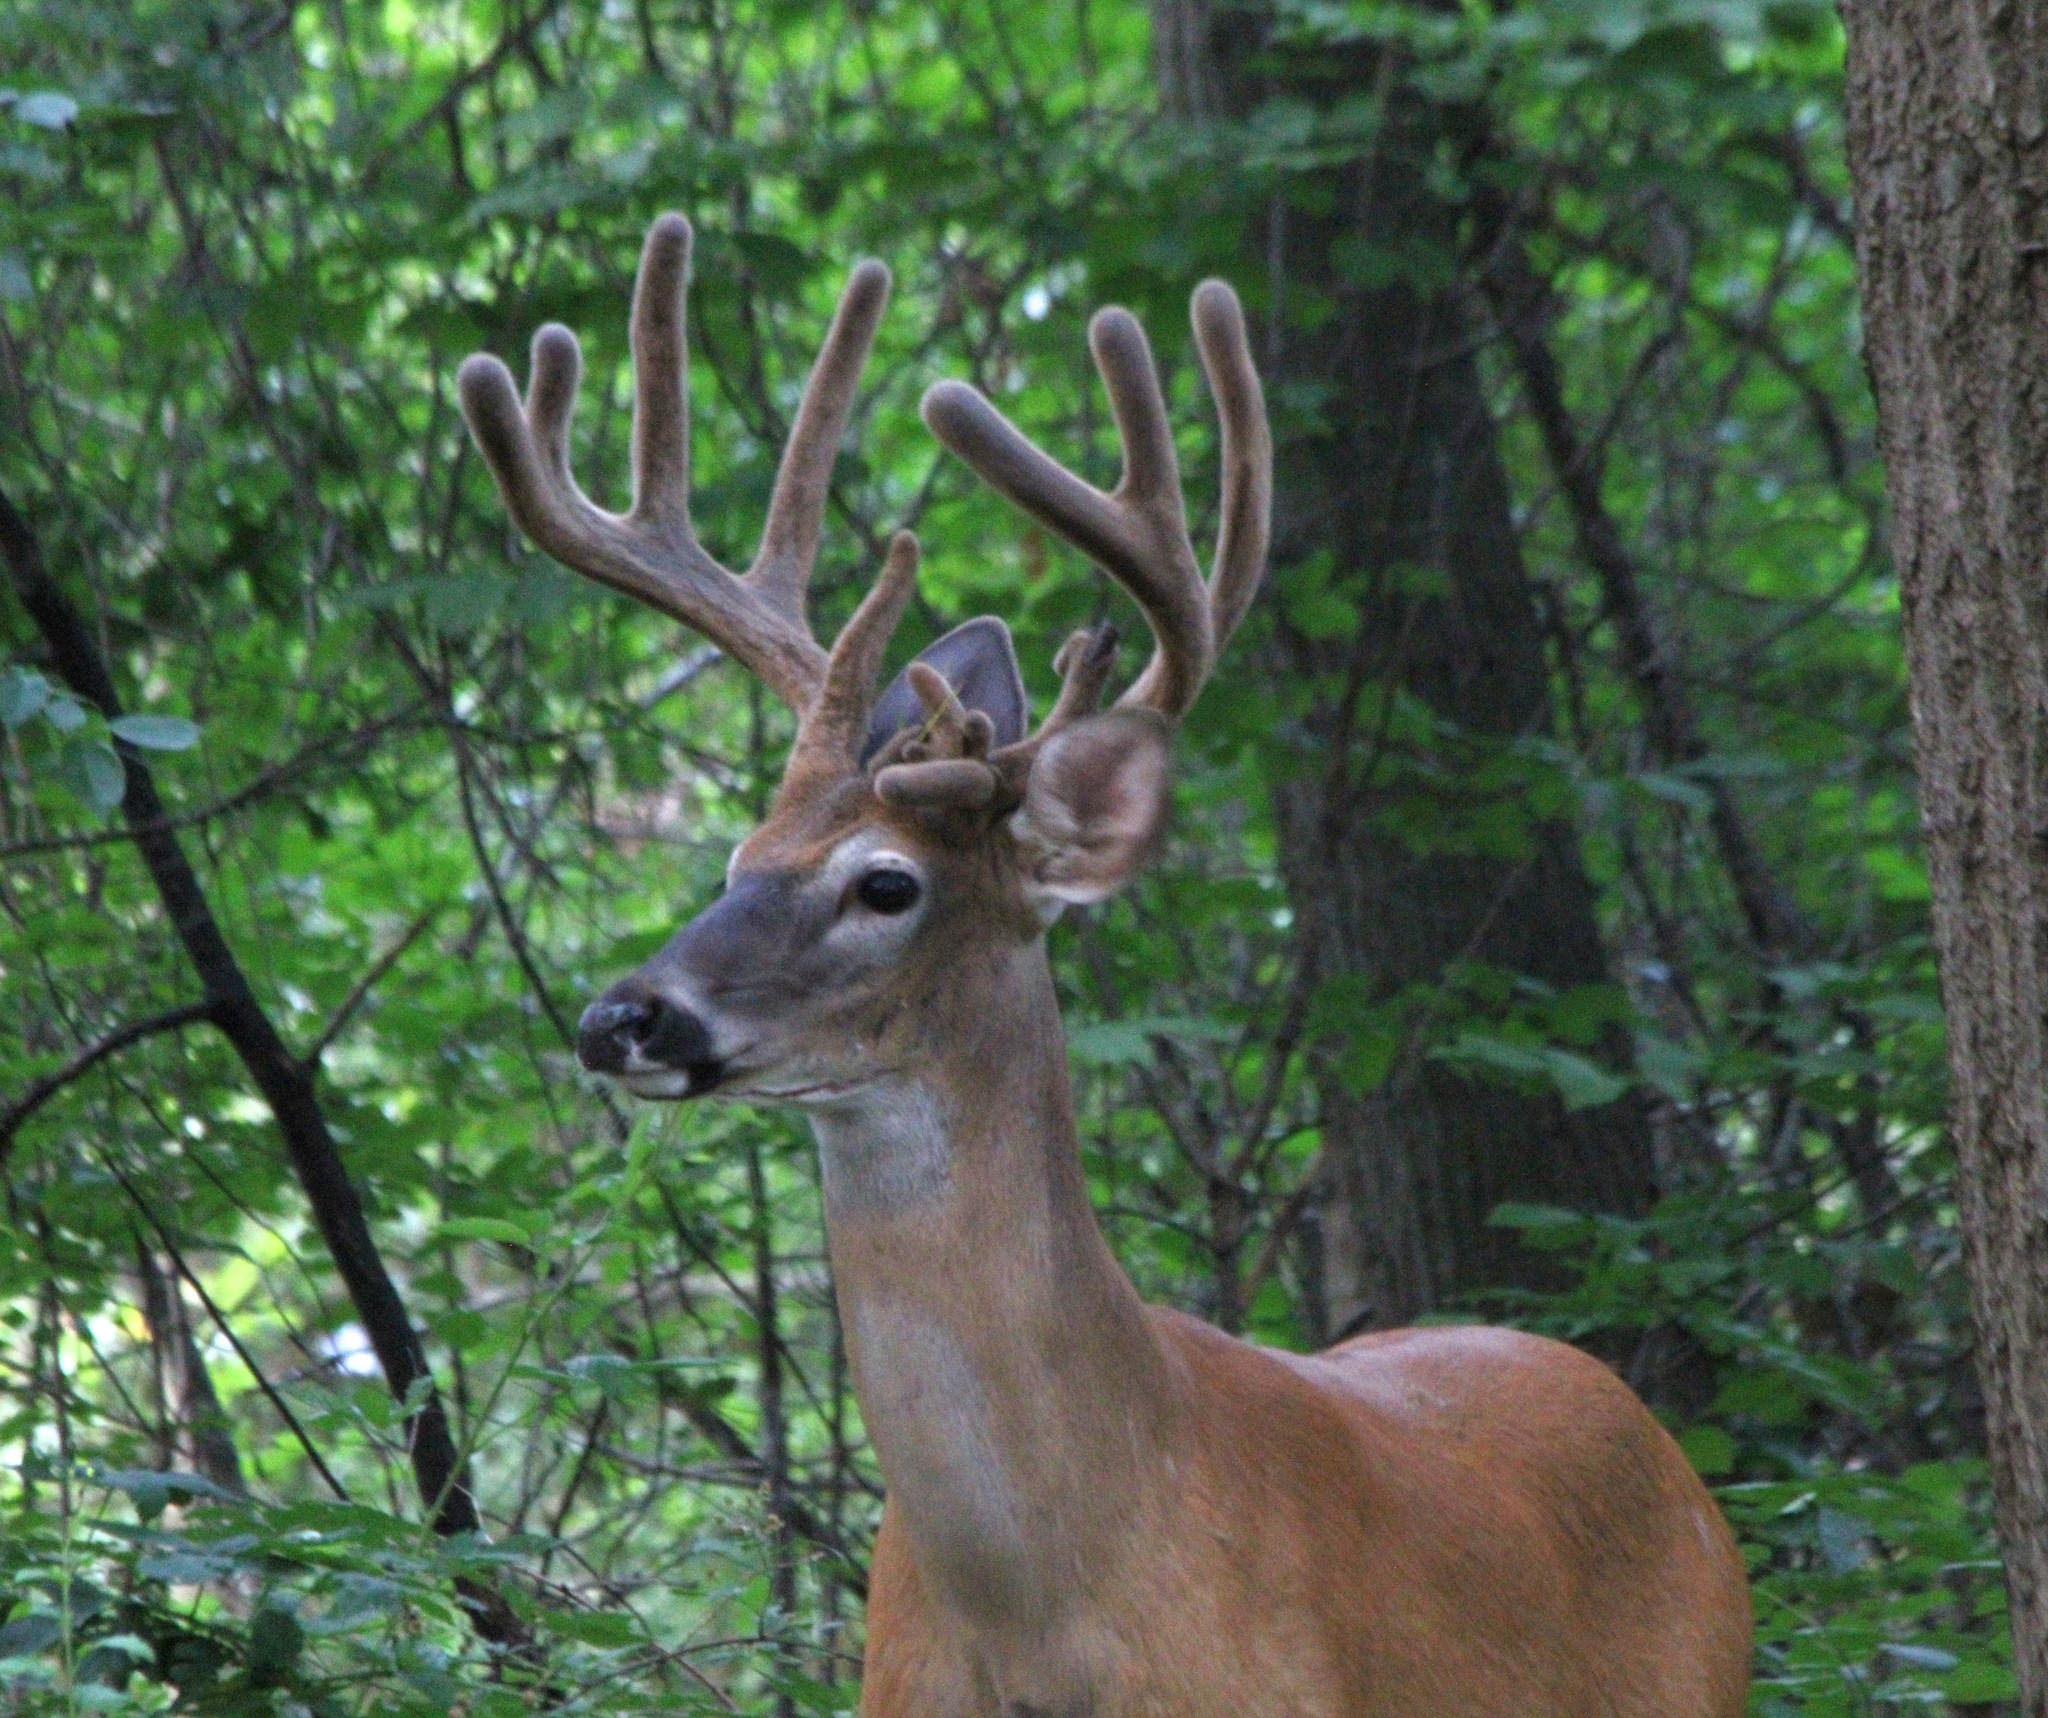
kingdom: Animalia
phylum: Chordata
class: Mammalia
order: Artiodactyla
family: Cervidae
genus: Odocoileus
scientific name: Odocoileus virginianus
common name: White-tailed deer
